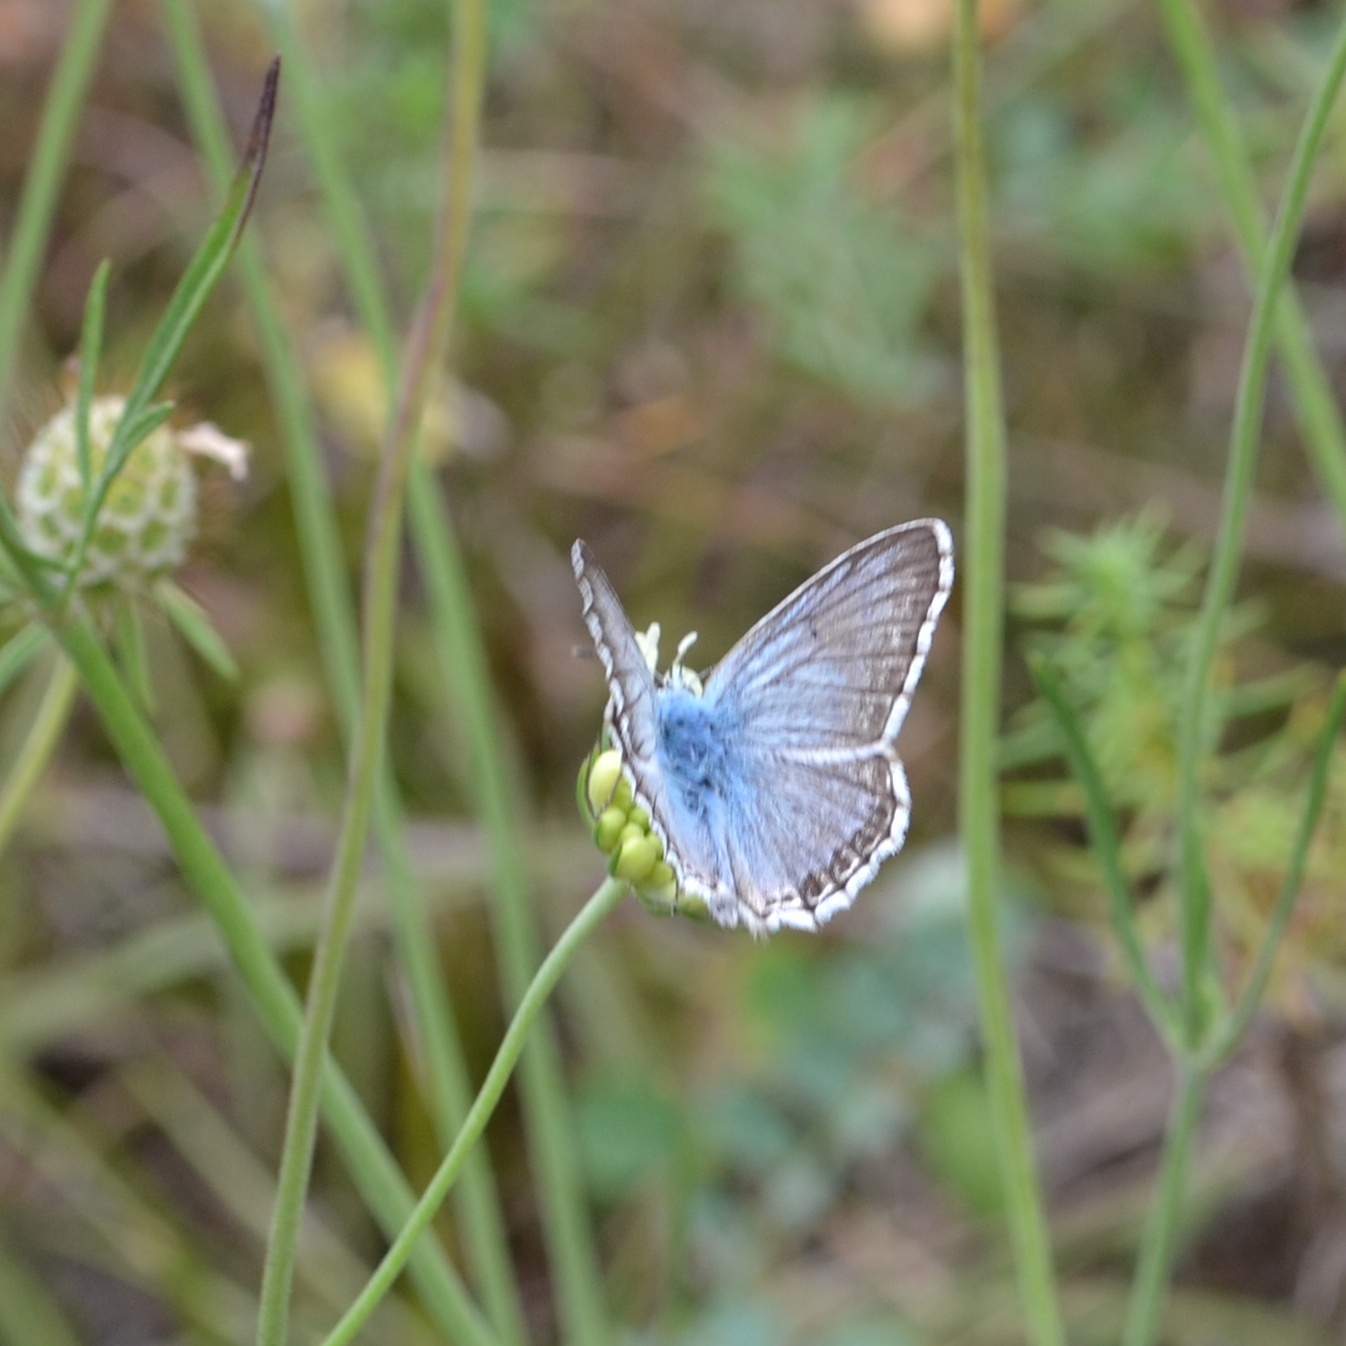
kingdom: Animalia
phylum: Arthropoda
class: Insecta
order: Lepidoptera
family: Lycaenidae
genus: Lysandra
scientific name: Lysandra coridon
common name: Chalkhill blue
